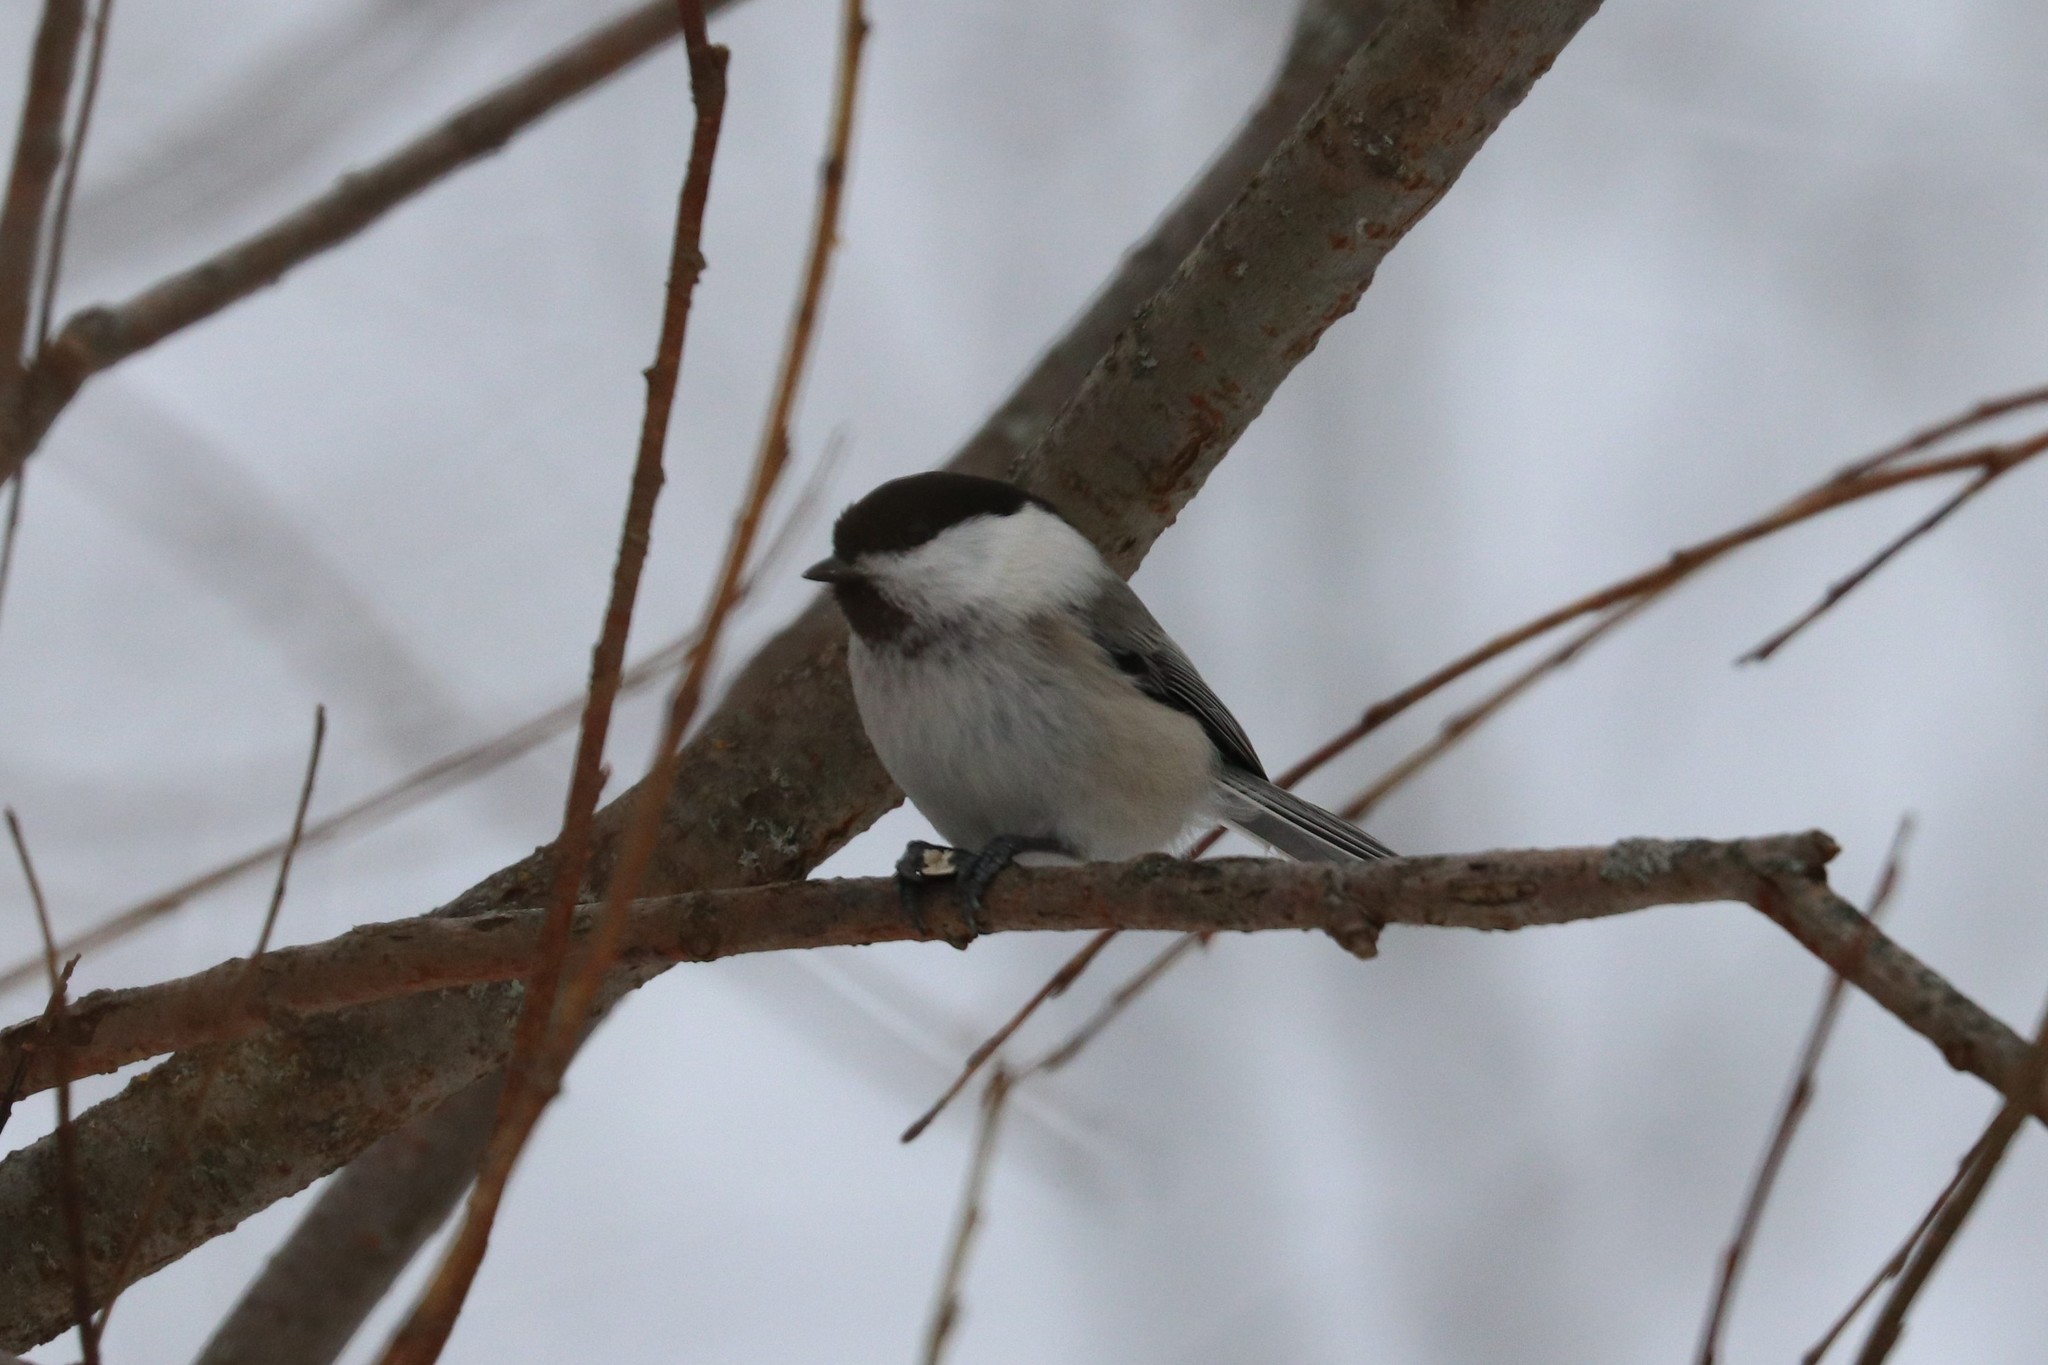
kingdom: Animalia
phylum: Chordata
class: Aves
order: Passeriformes
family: Paridae
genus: Poecile
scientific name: Poecile montanus
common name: Willow tit
